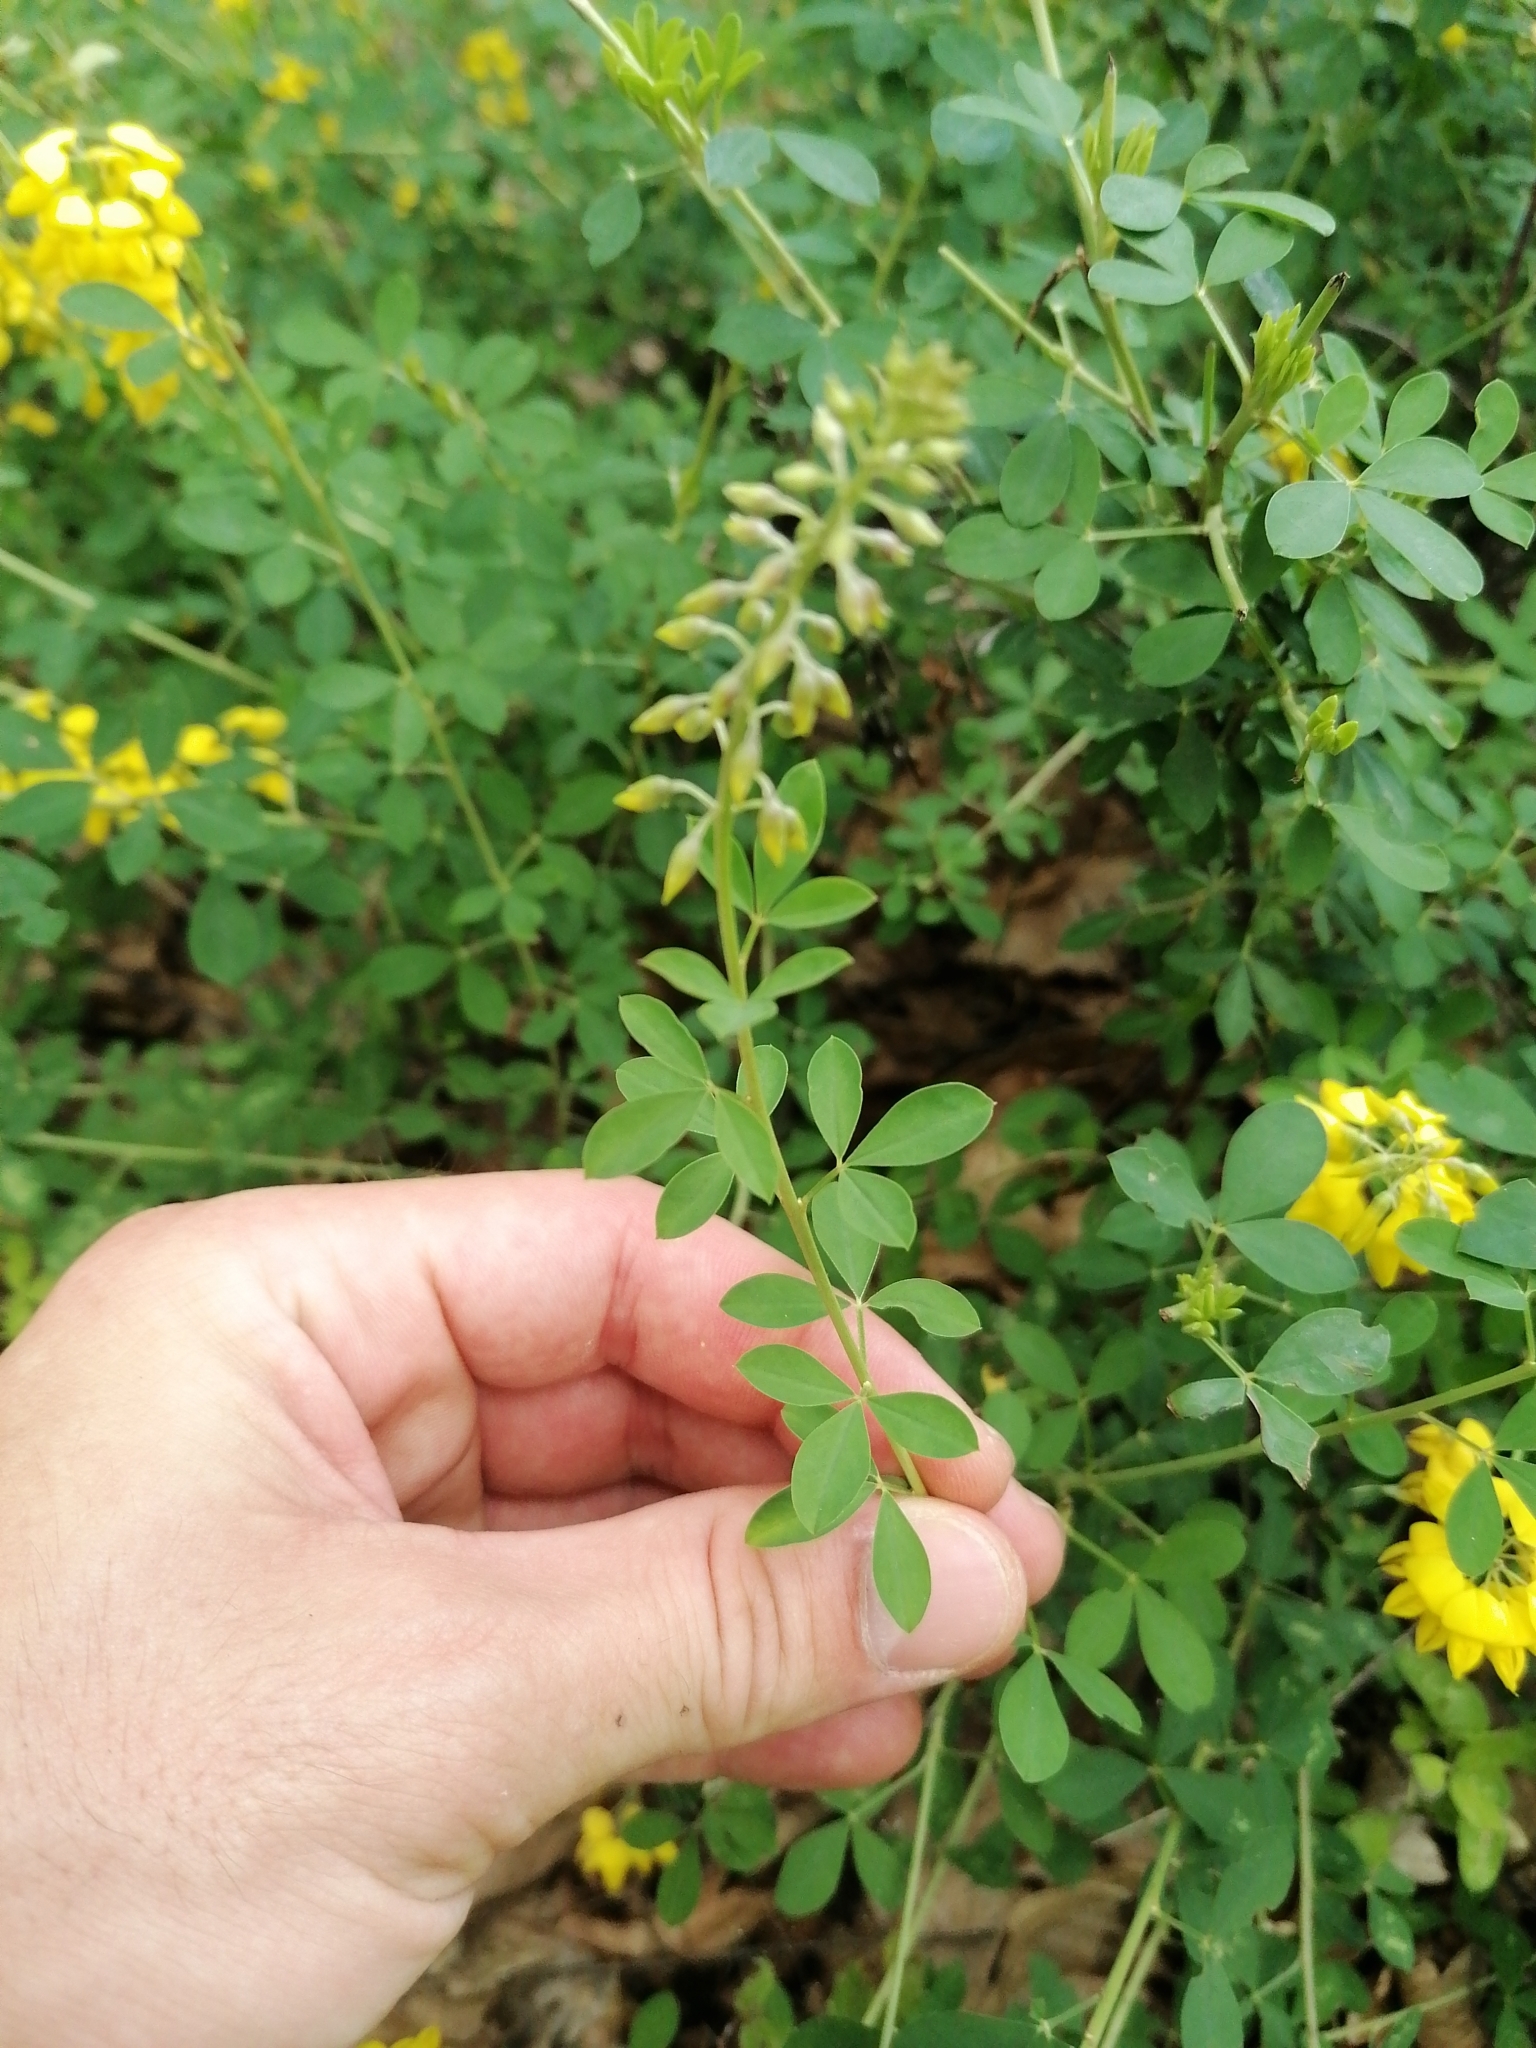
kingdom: Plantae
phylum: Tracheophyta
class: Magnoliopsida
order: Fabales
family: Fabaceae
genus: Cytisus
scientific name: Cytisus nigricans
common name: Black broom
